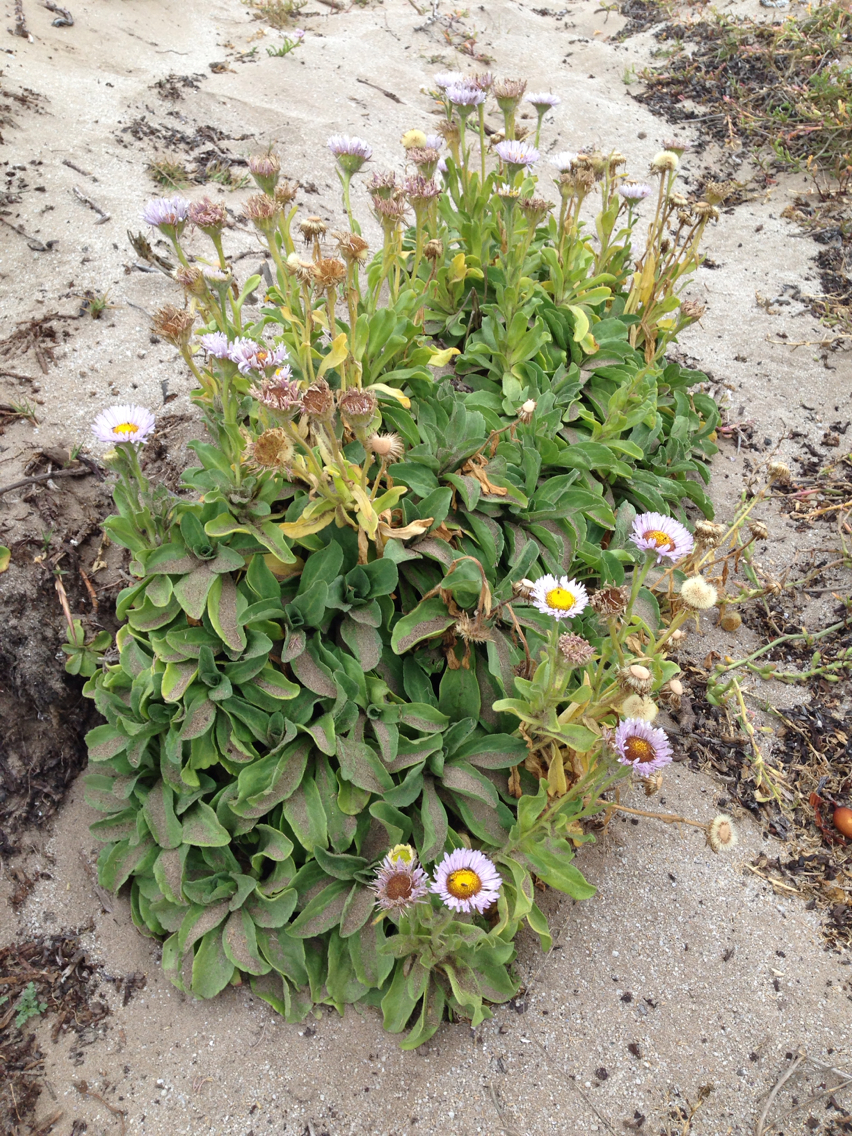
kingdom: Plantae
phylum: Tracheophyta
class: Magnoliopsida
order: Asterales
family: Asteraceae
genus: Erigeron
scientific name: Erigeron glaucus
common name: Seaside daisy
